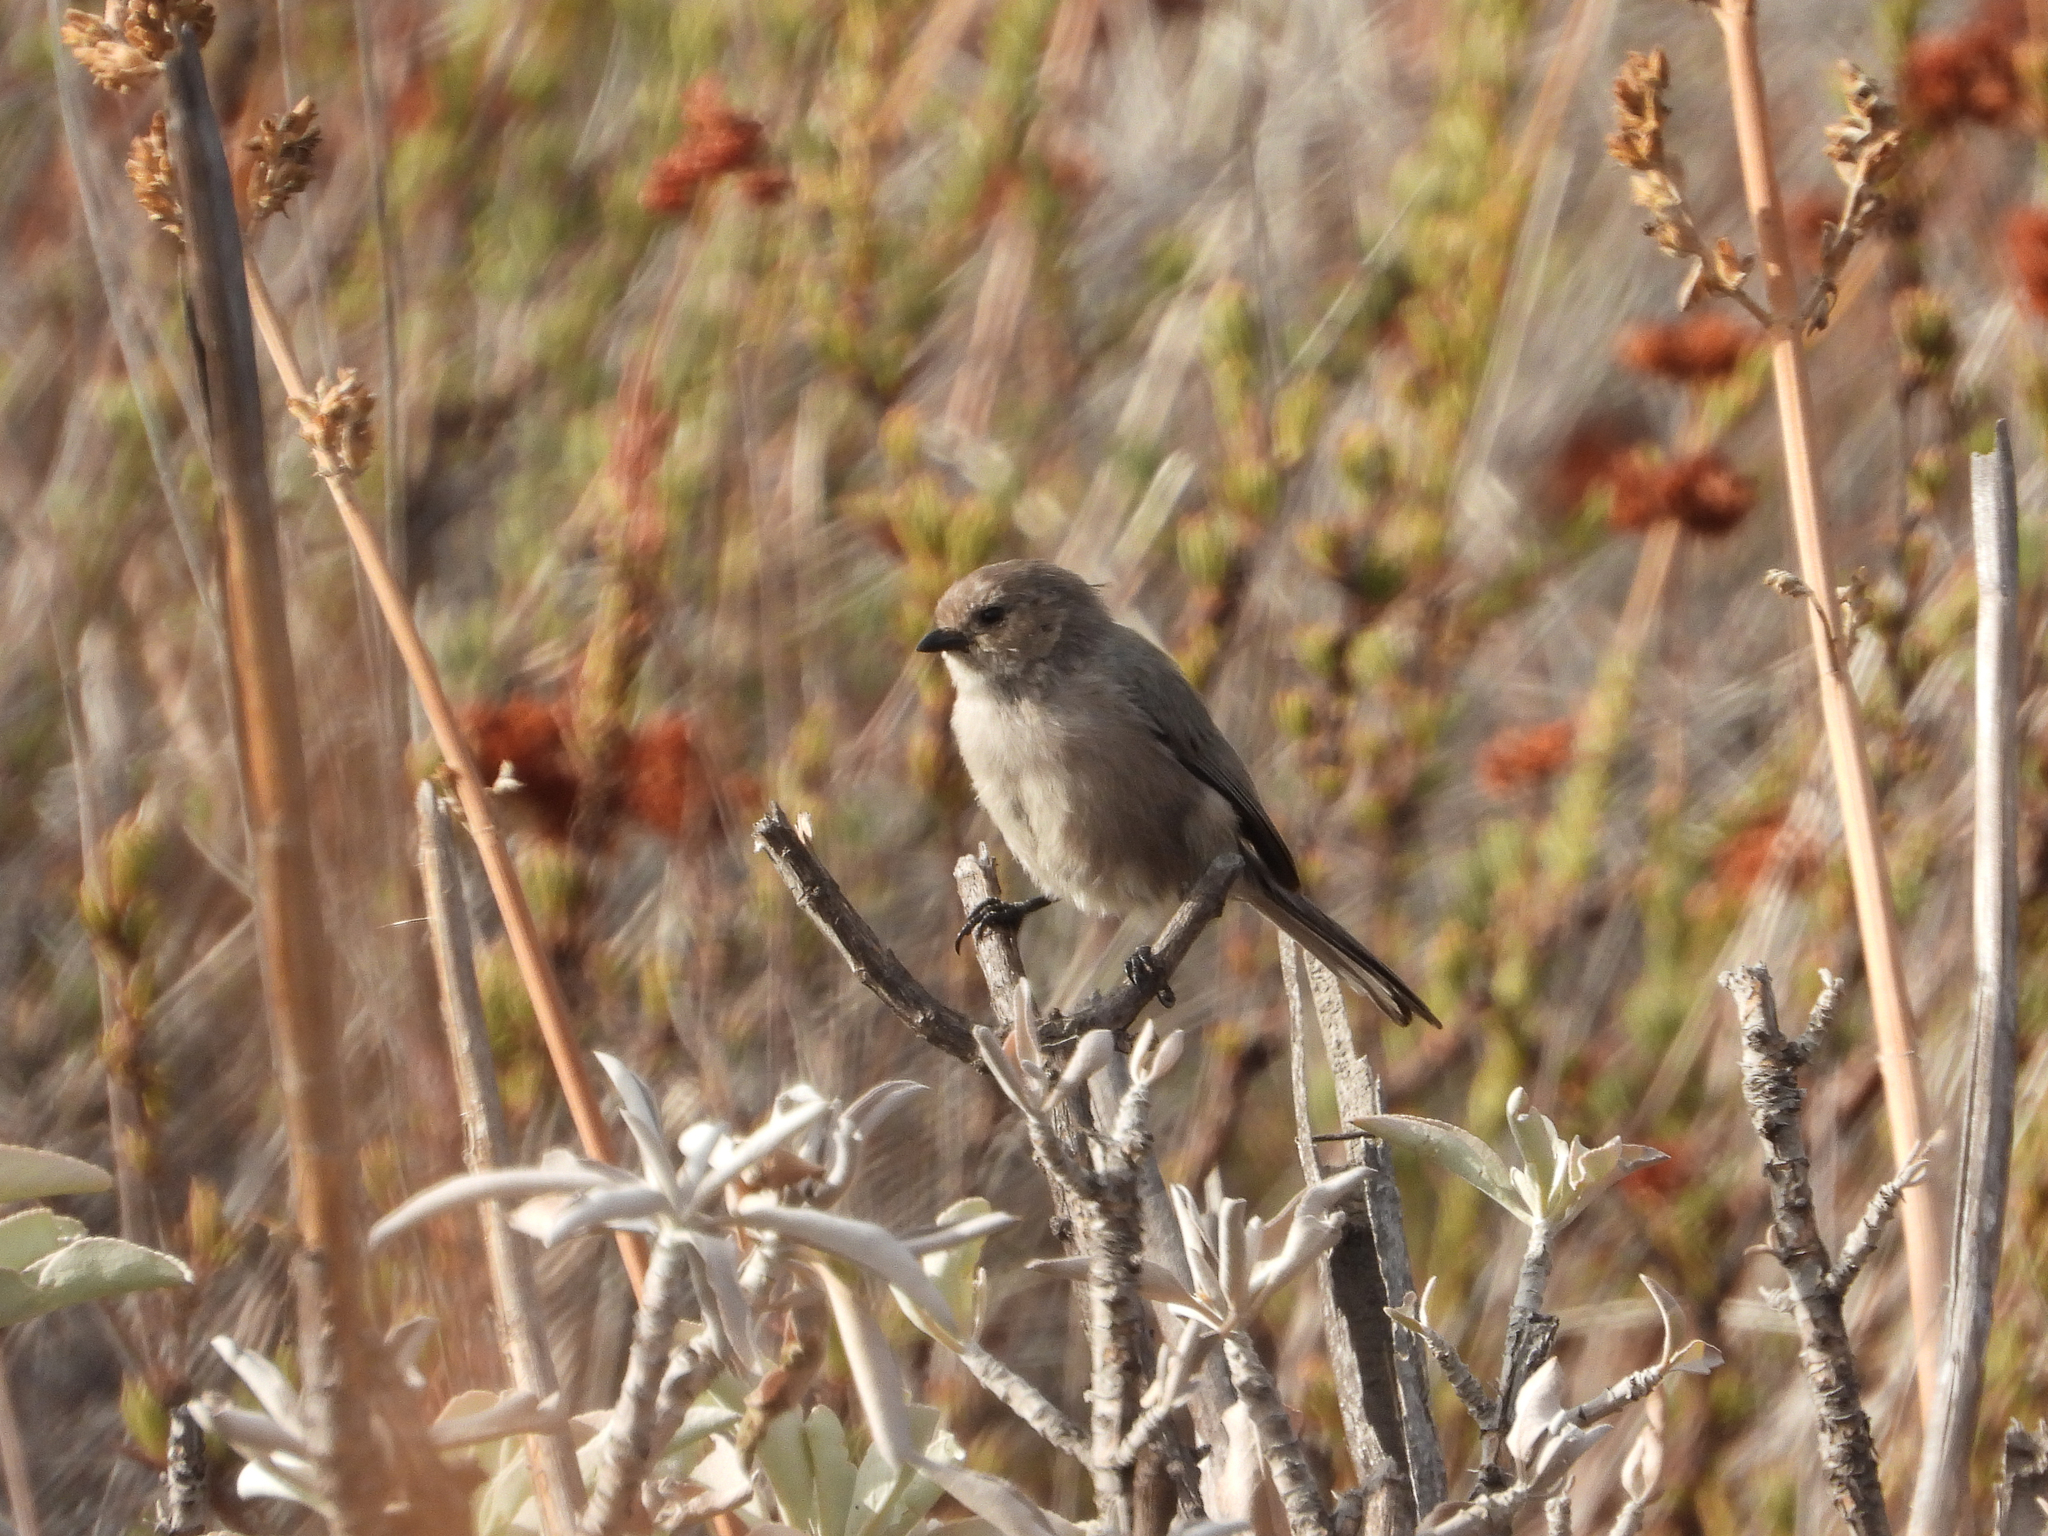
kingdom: Animalia
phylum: Chordata
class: Aves
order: Passeriformes
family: Aegithalidae
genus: Psaltriparus
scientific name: Psaltriparus minimus
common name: American bushtit
